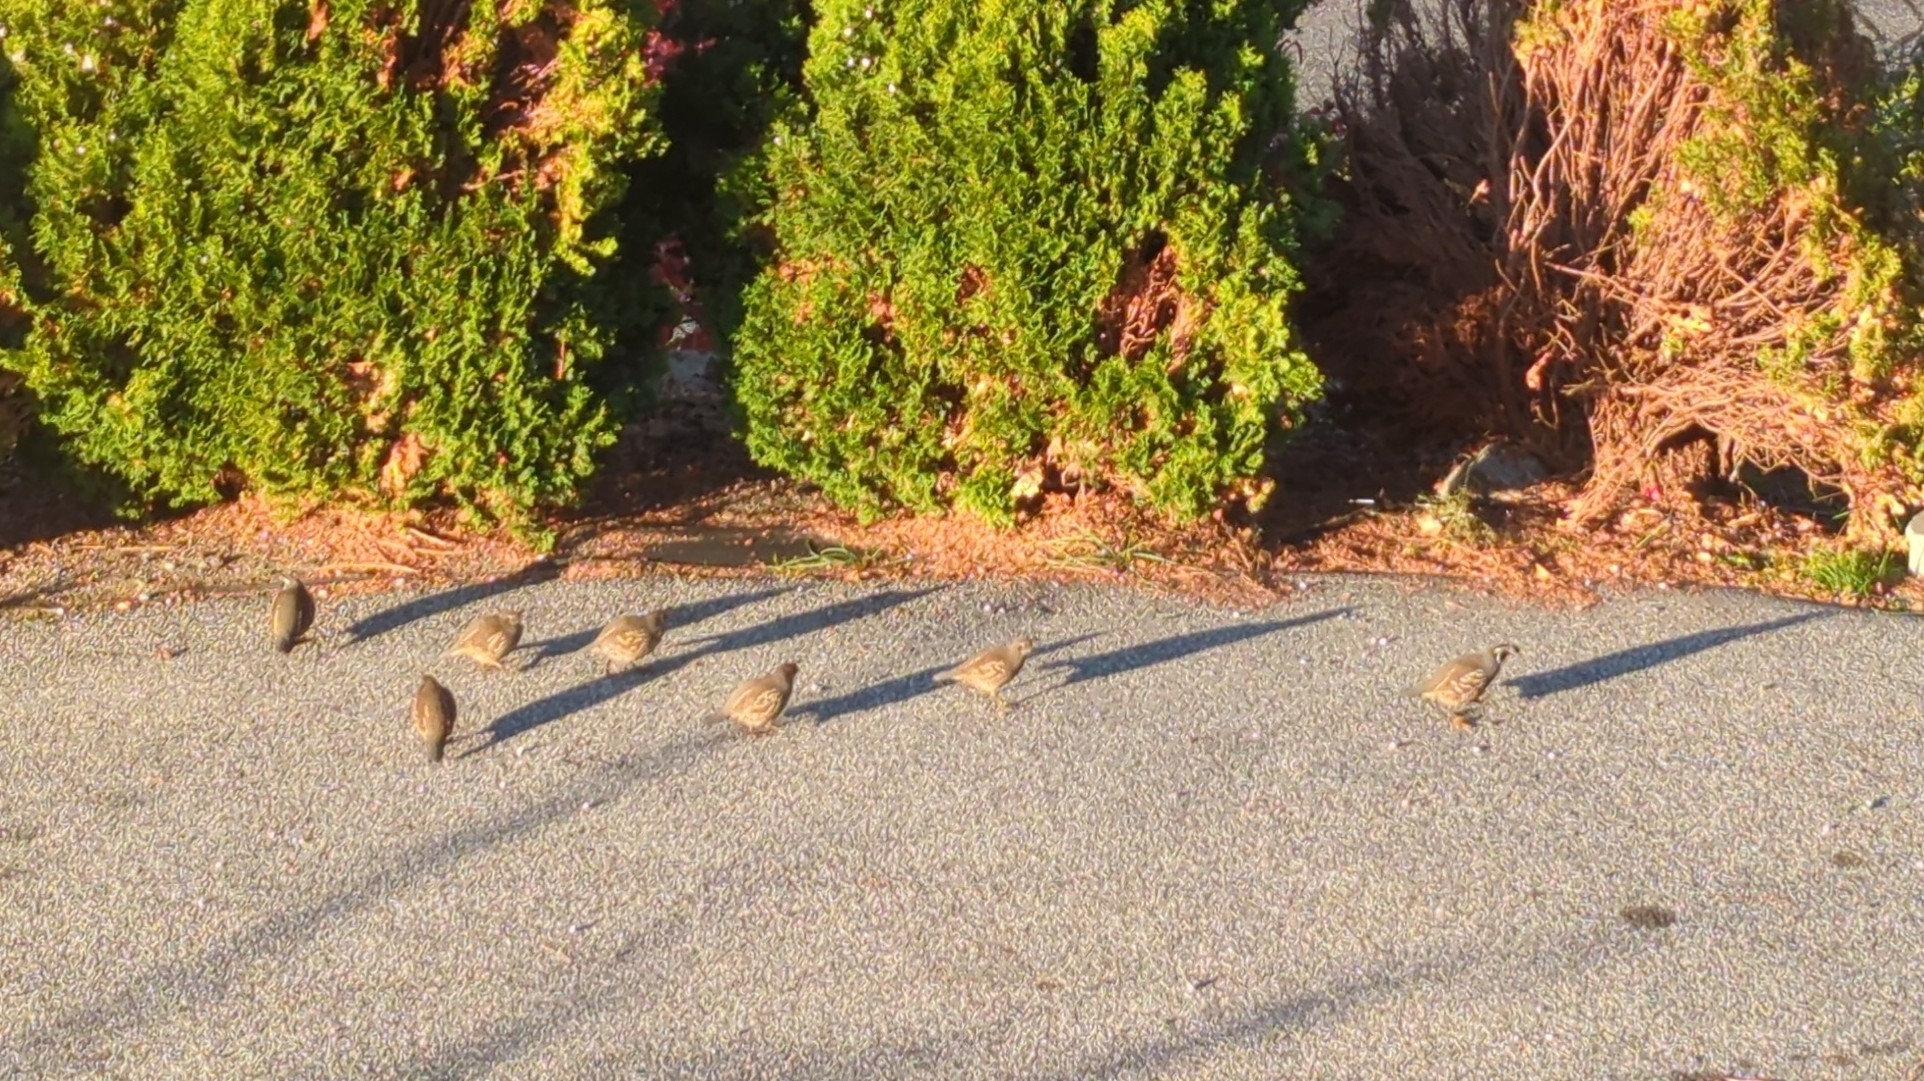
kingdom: Animalia
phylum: Chordata
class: Aves
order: Galliformes
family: Odontophoridae
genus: Callipepla
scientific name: Callipepla californica
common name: California quail
